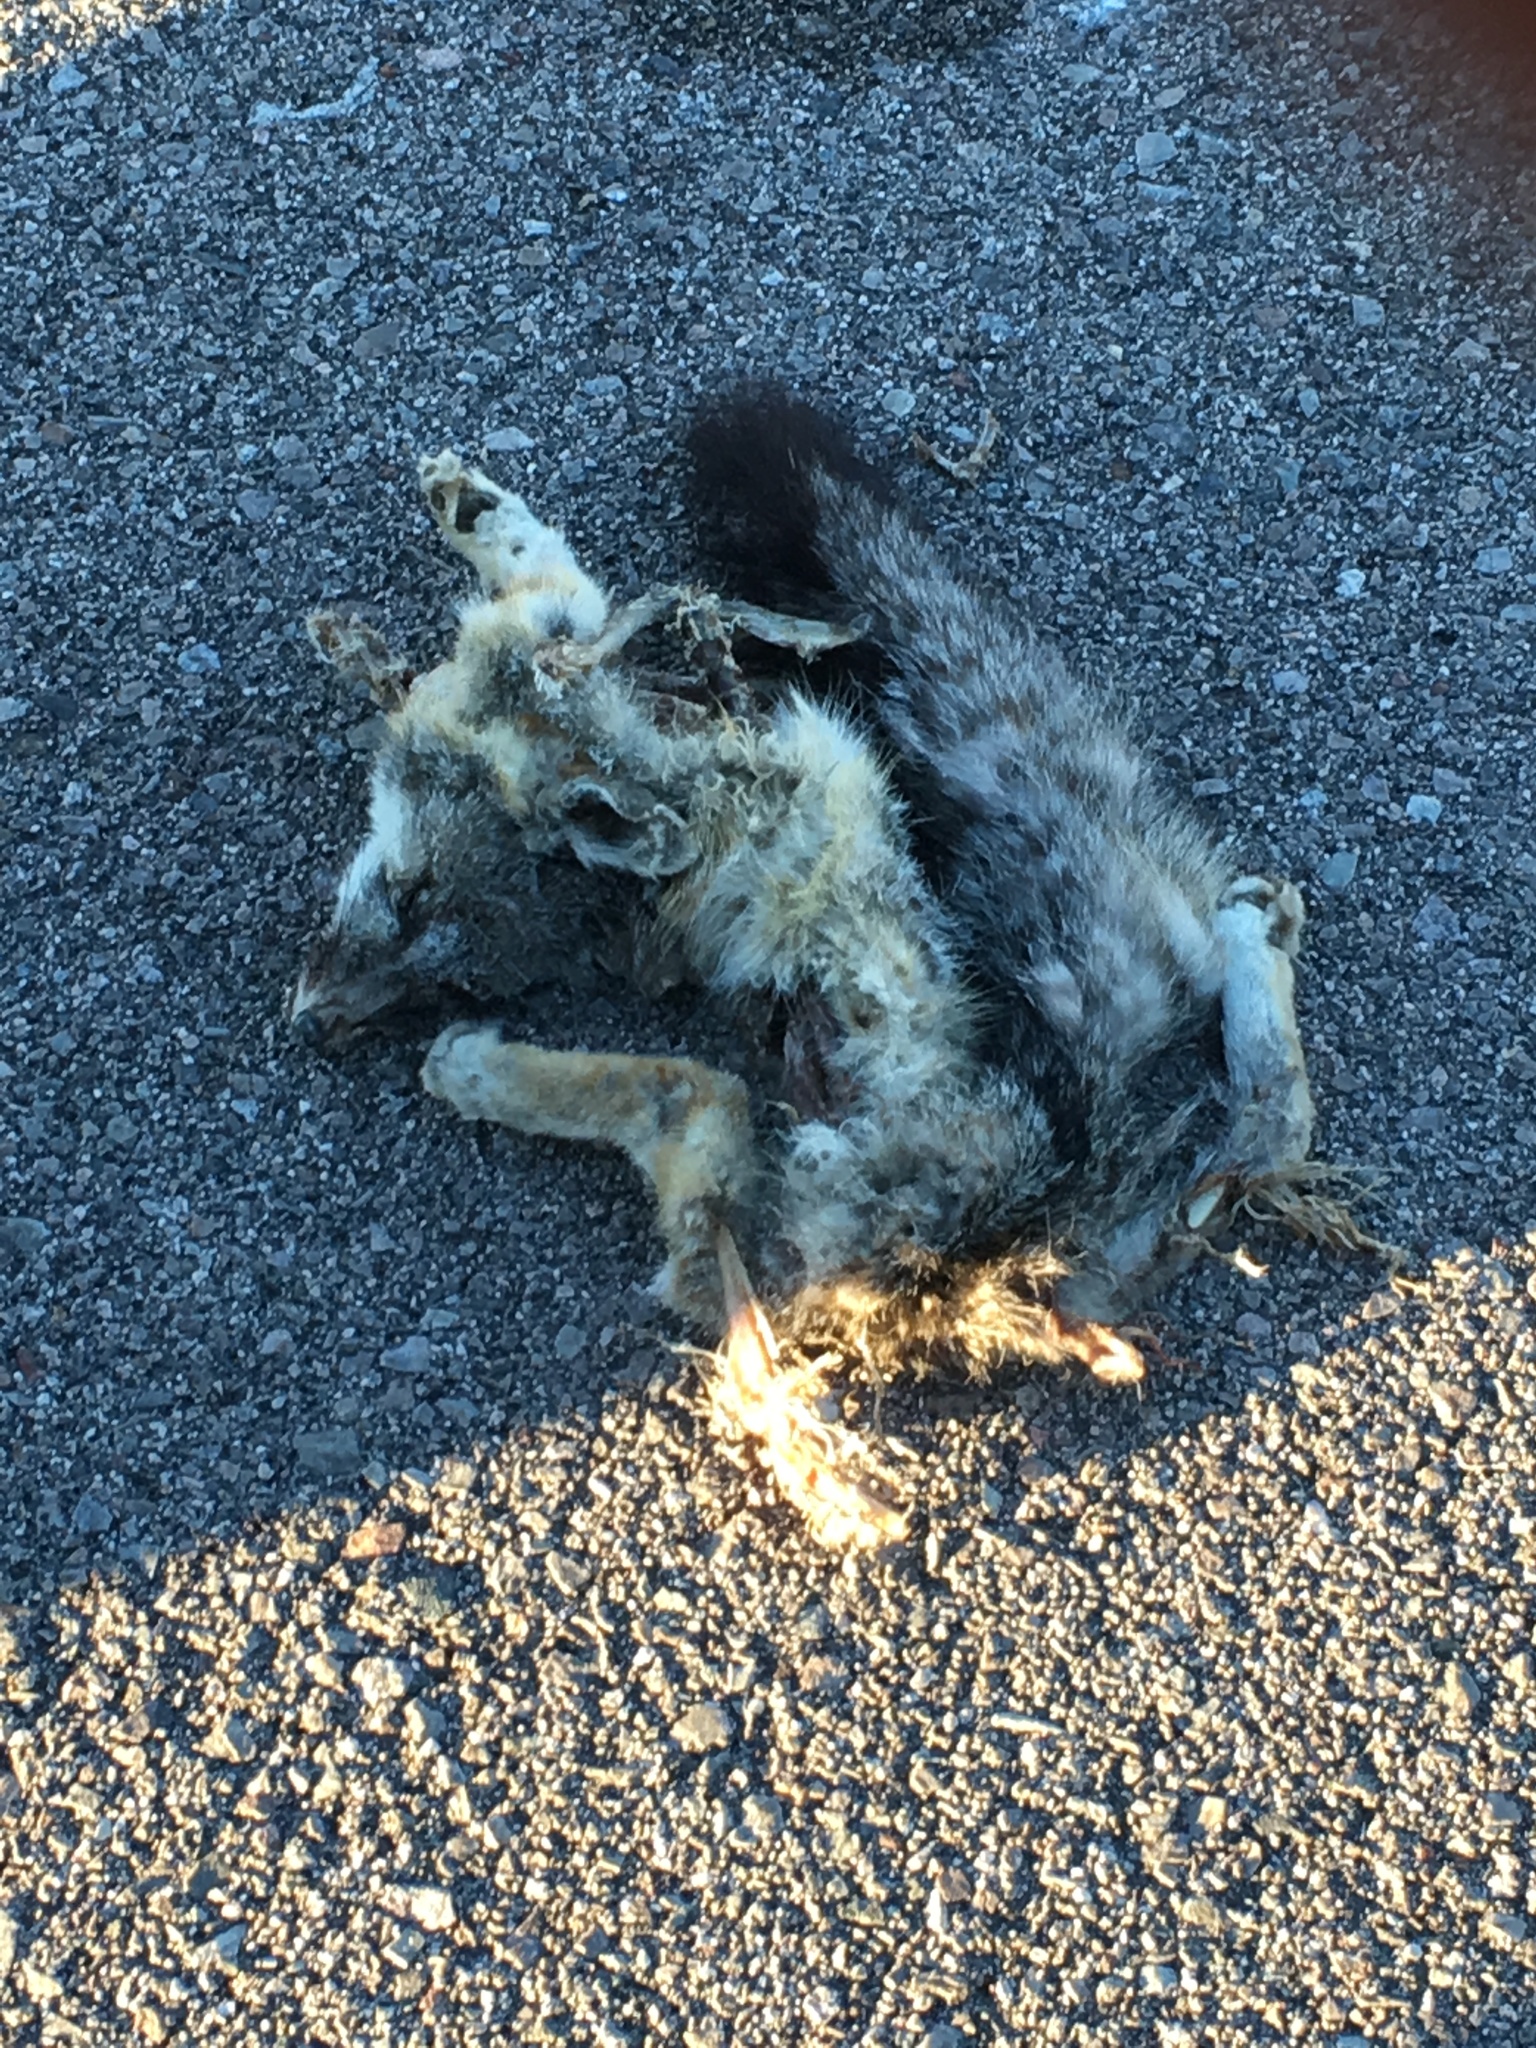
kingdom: Animalia
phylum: Chordata
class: Mammalia
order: Carnivora
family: Canidae
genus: Urocyon
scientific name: Urocyon cinereoargenteus
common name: Gray fox
